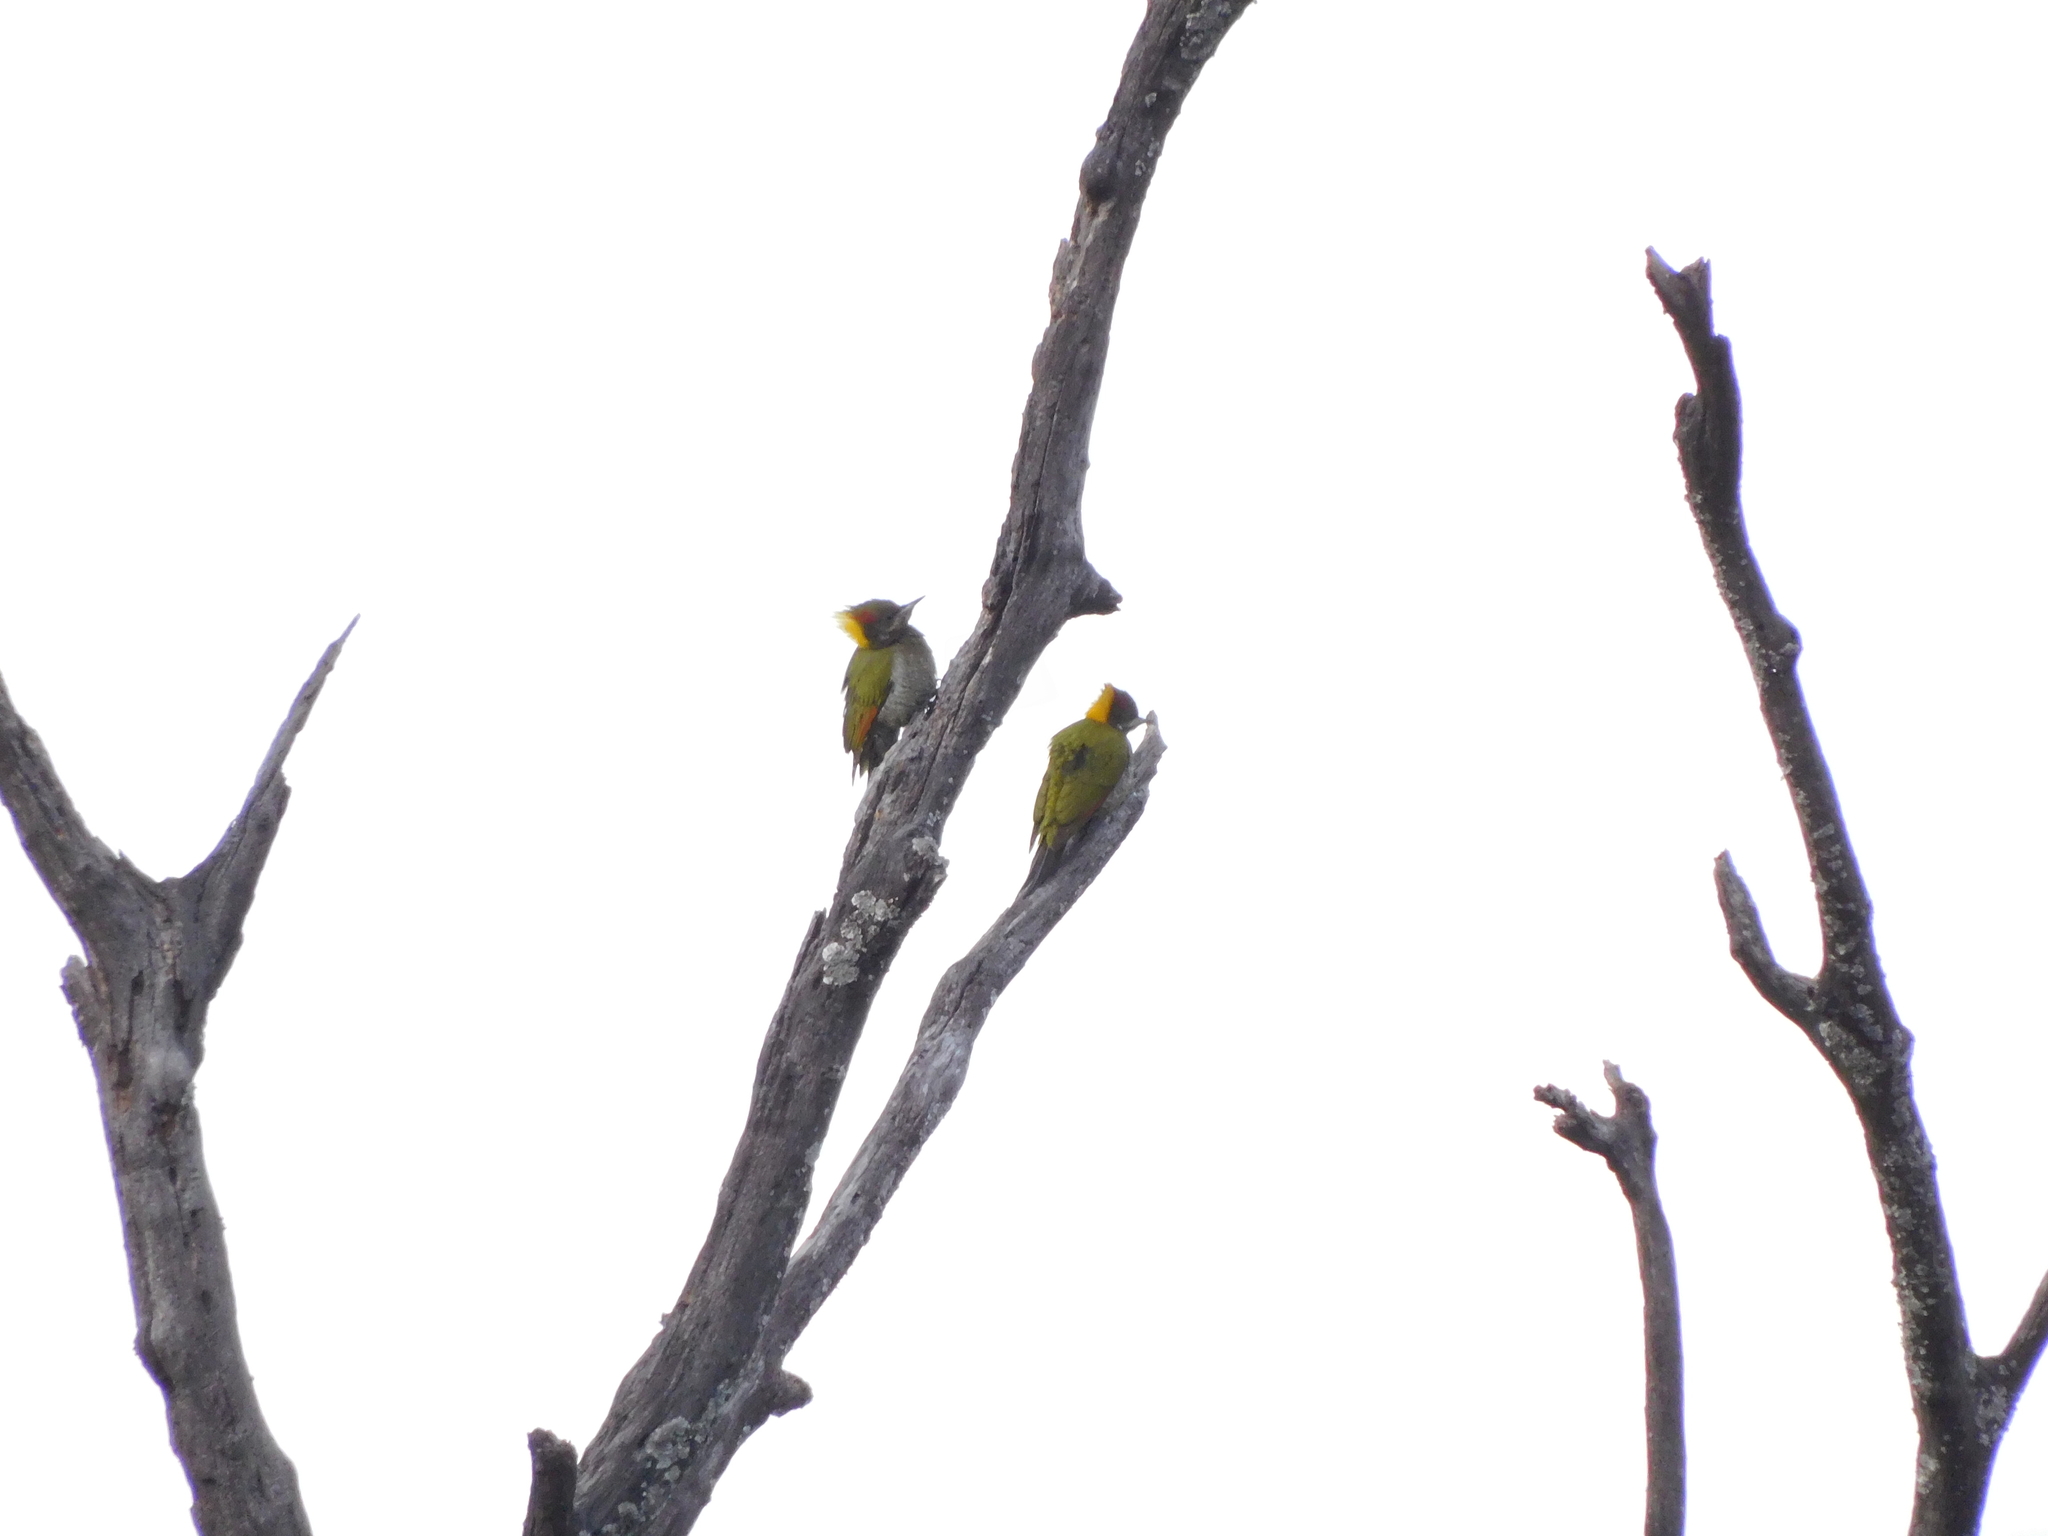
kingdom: Animalia
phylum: Chordata
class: Aves
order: Piciformes
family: Picidae
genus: Picus
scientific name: Picus chlorolophus
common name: Lesser yellownape
